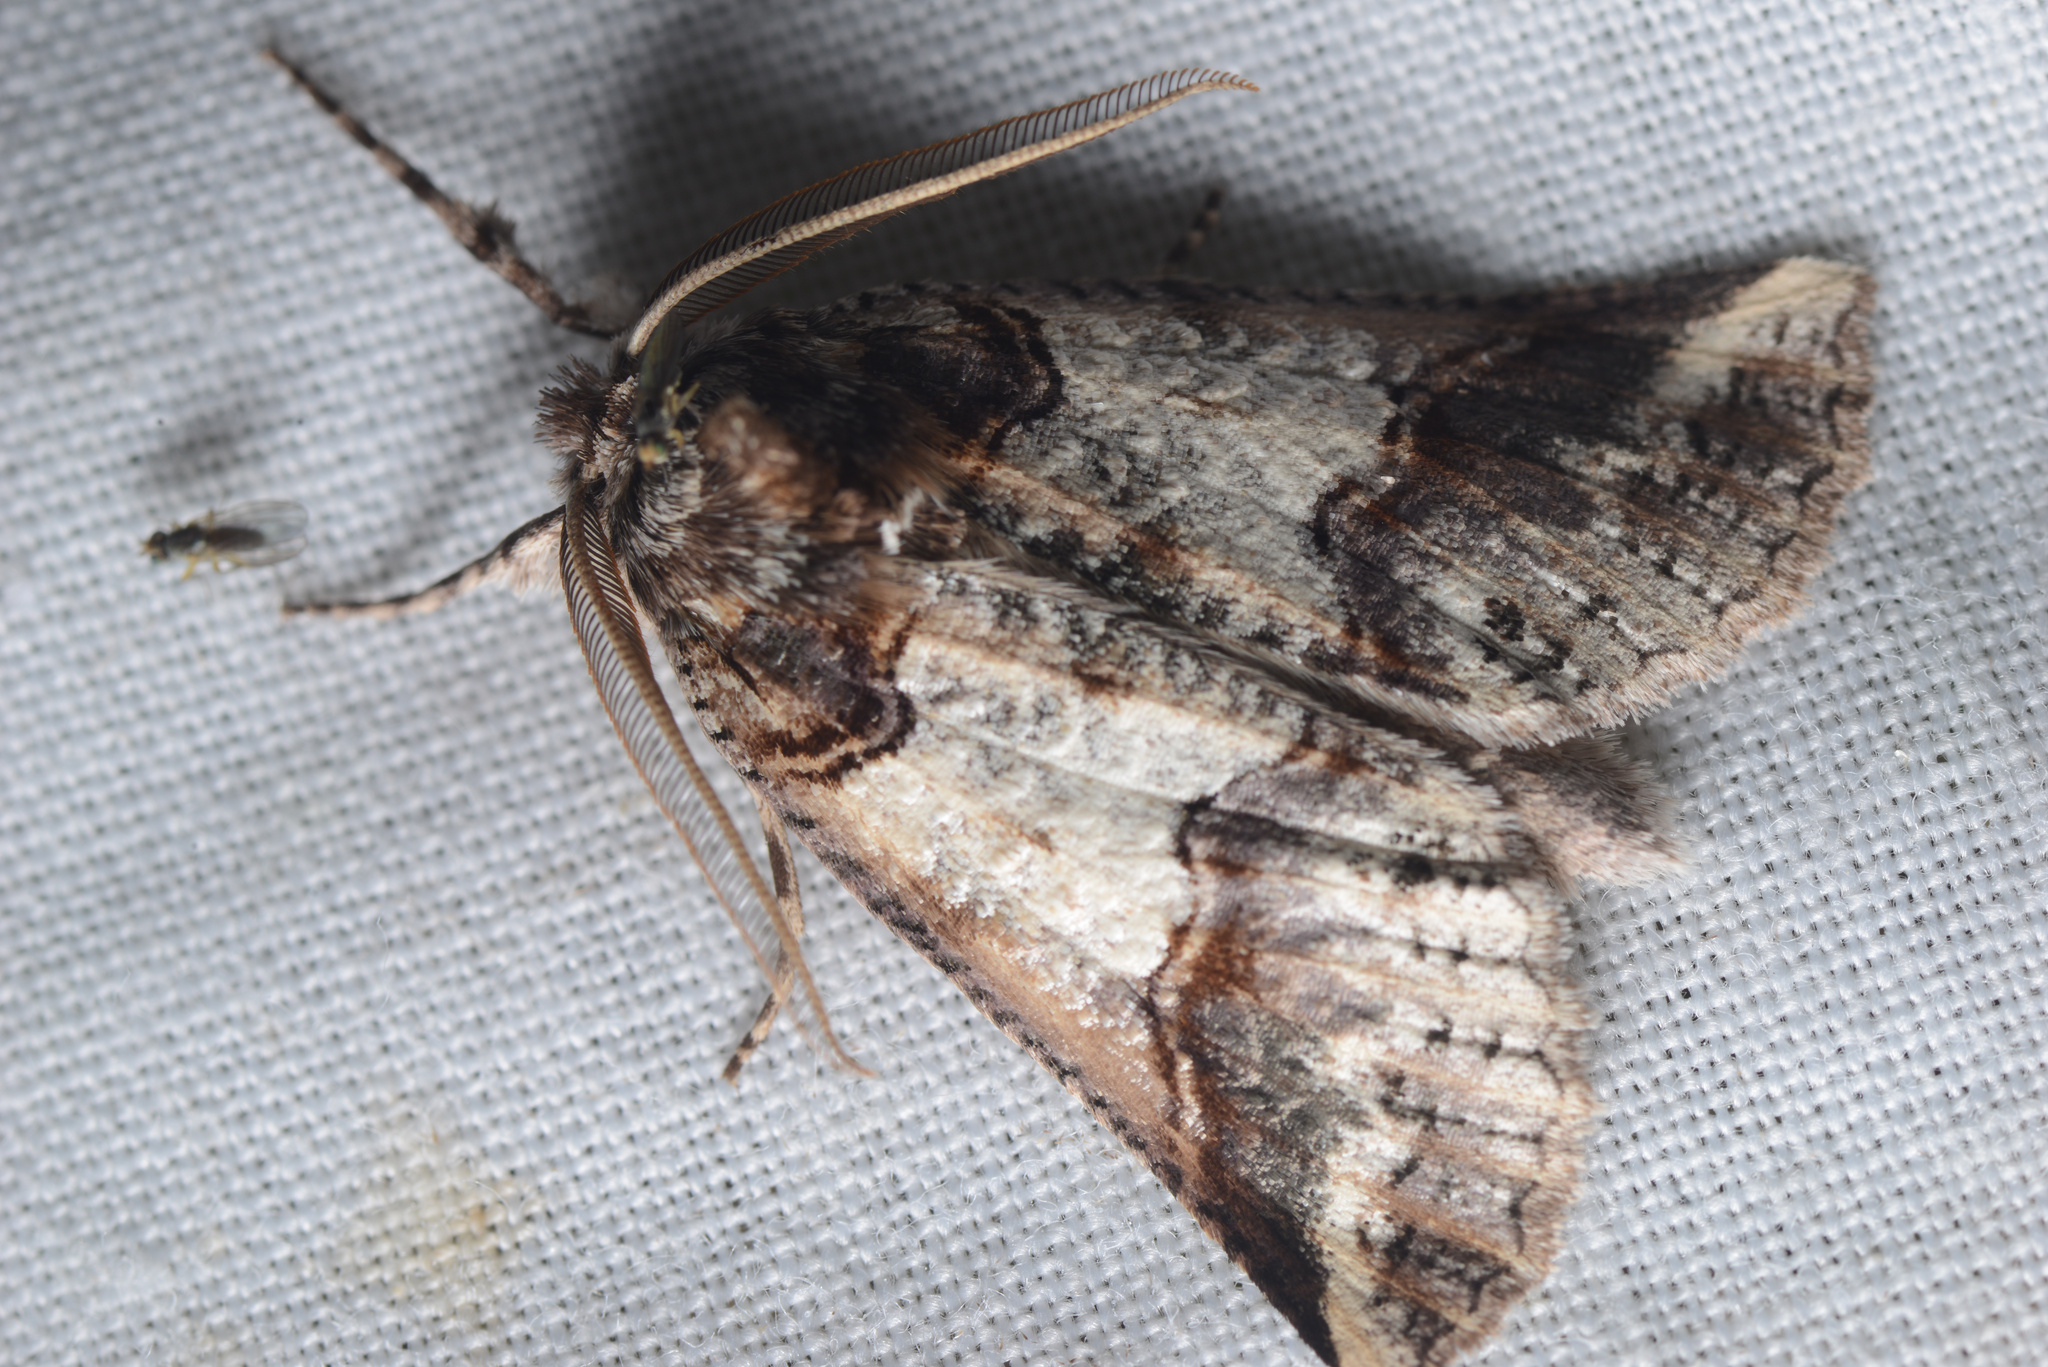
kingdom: Animalia
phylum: Arthropoda
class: Insecta
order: Lepidoptera
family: Geometridae
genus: Declana
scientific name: Declana
